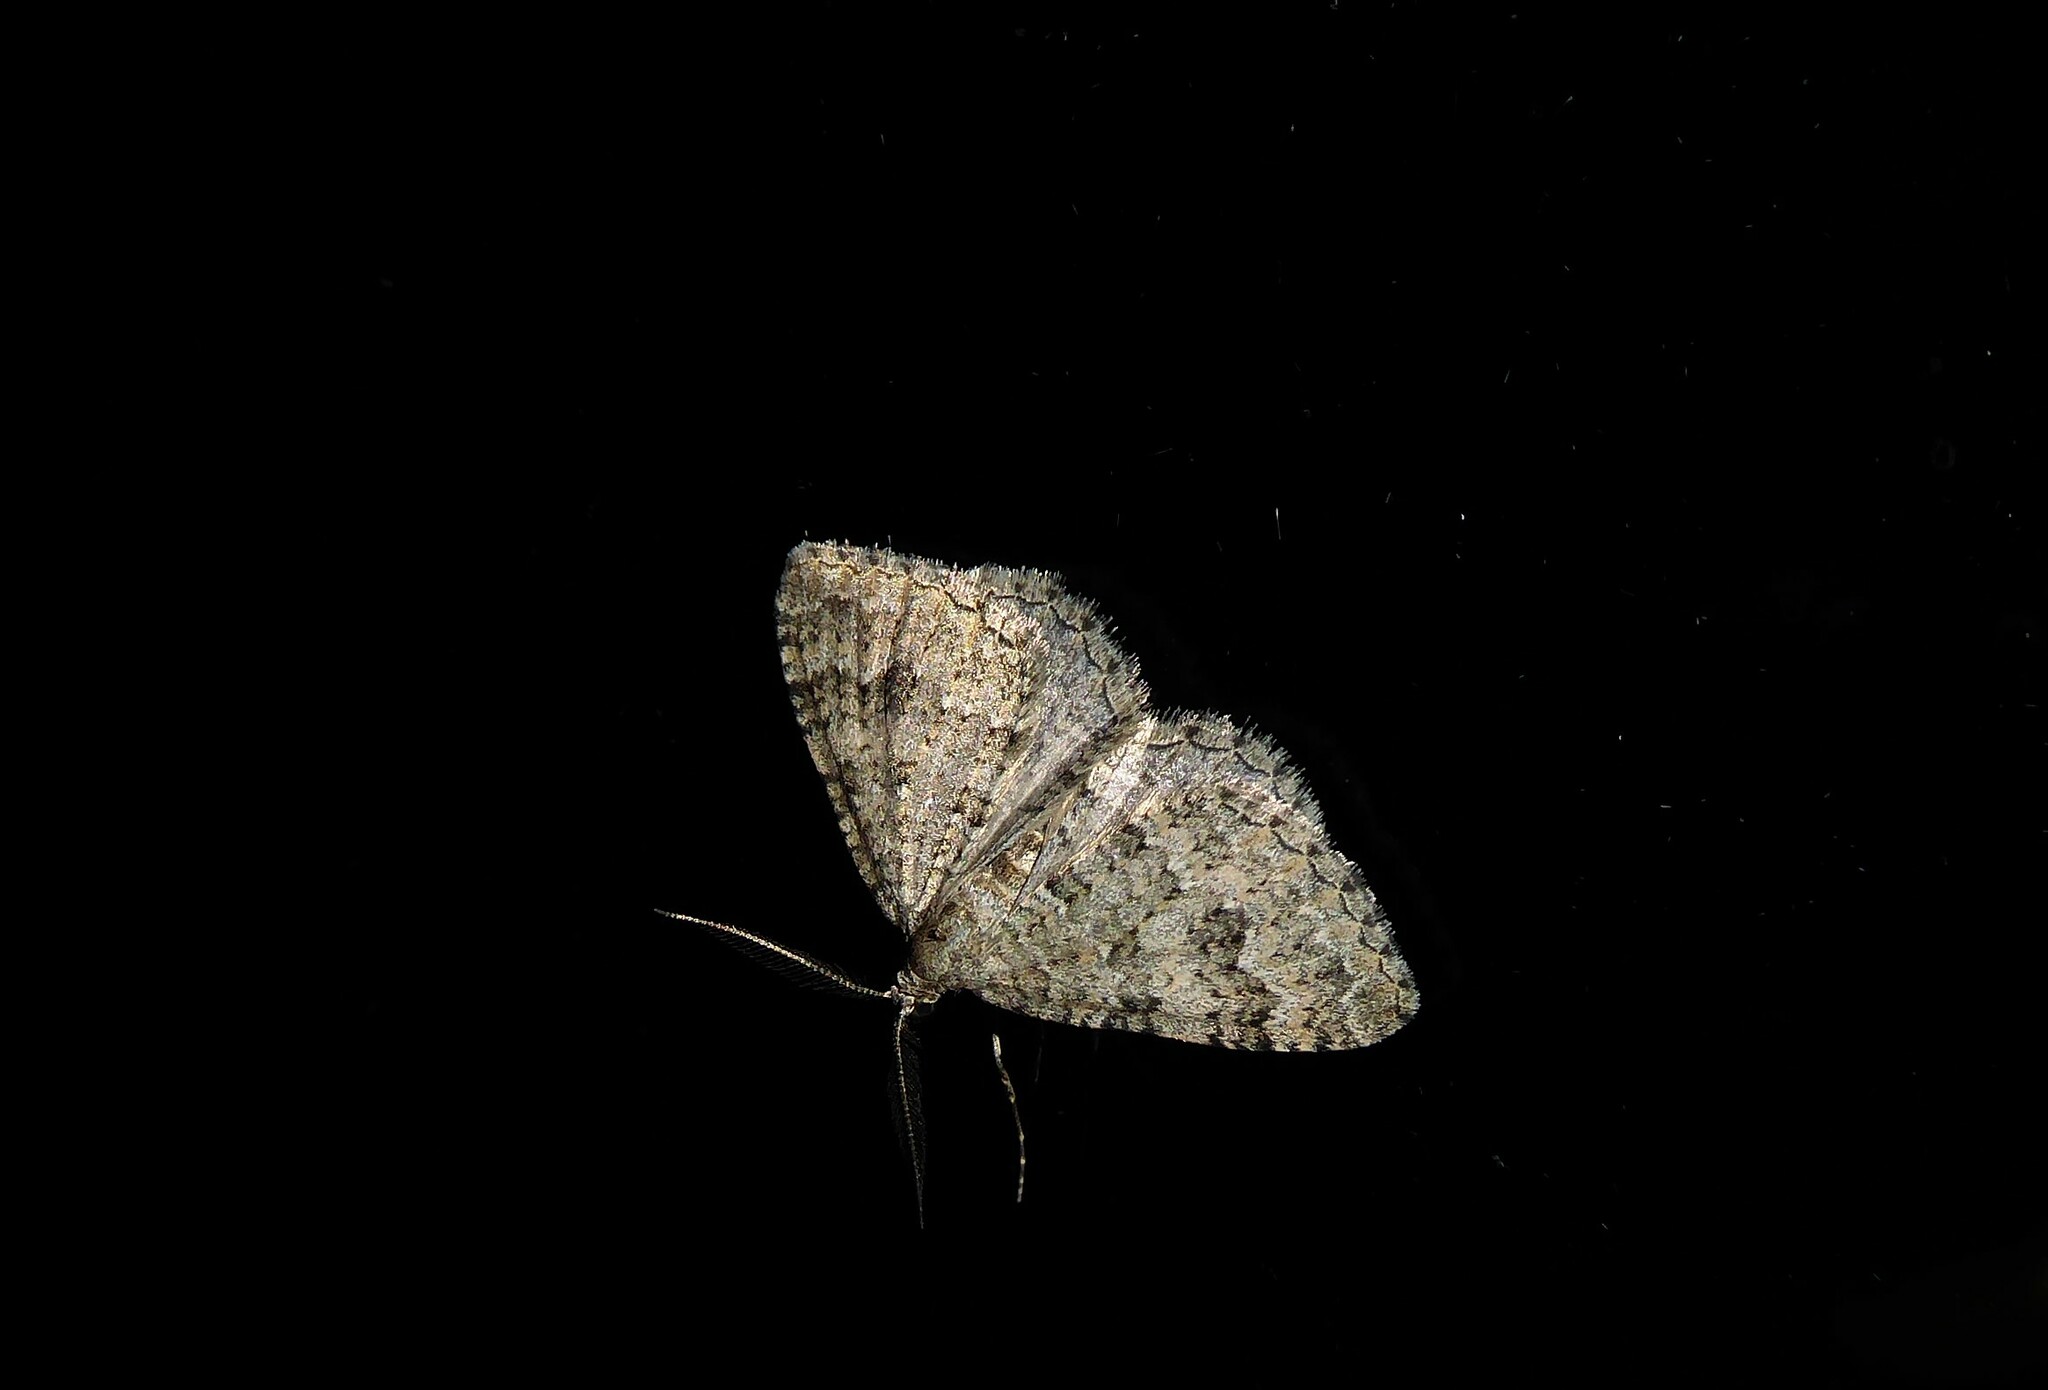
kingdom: Animalia
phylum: Arthropoda
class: Insecta
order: Lepidoptera
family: Geometridae
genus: Helastia
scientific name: Helastia corcularia
